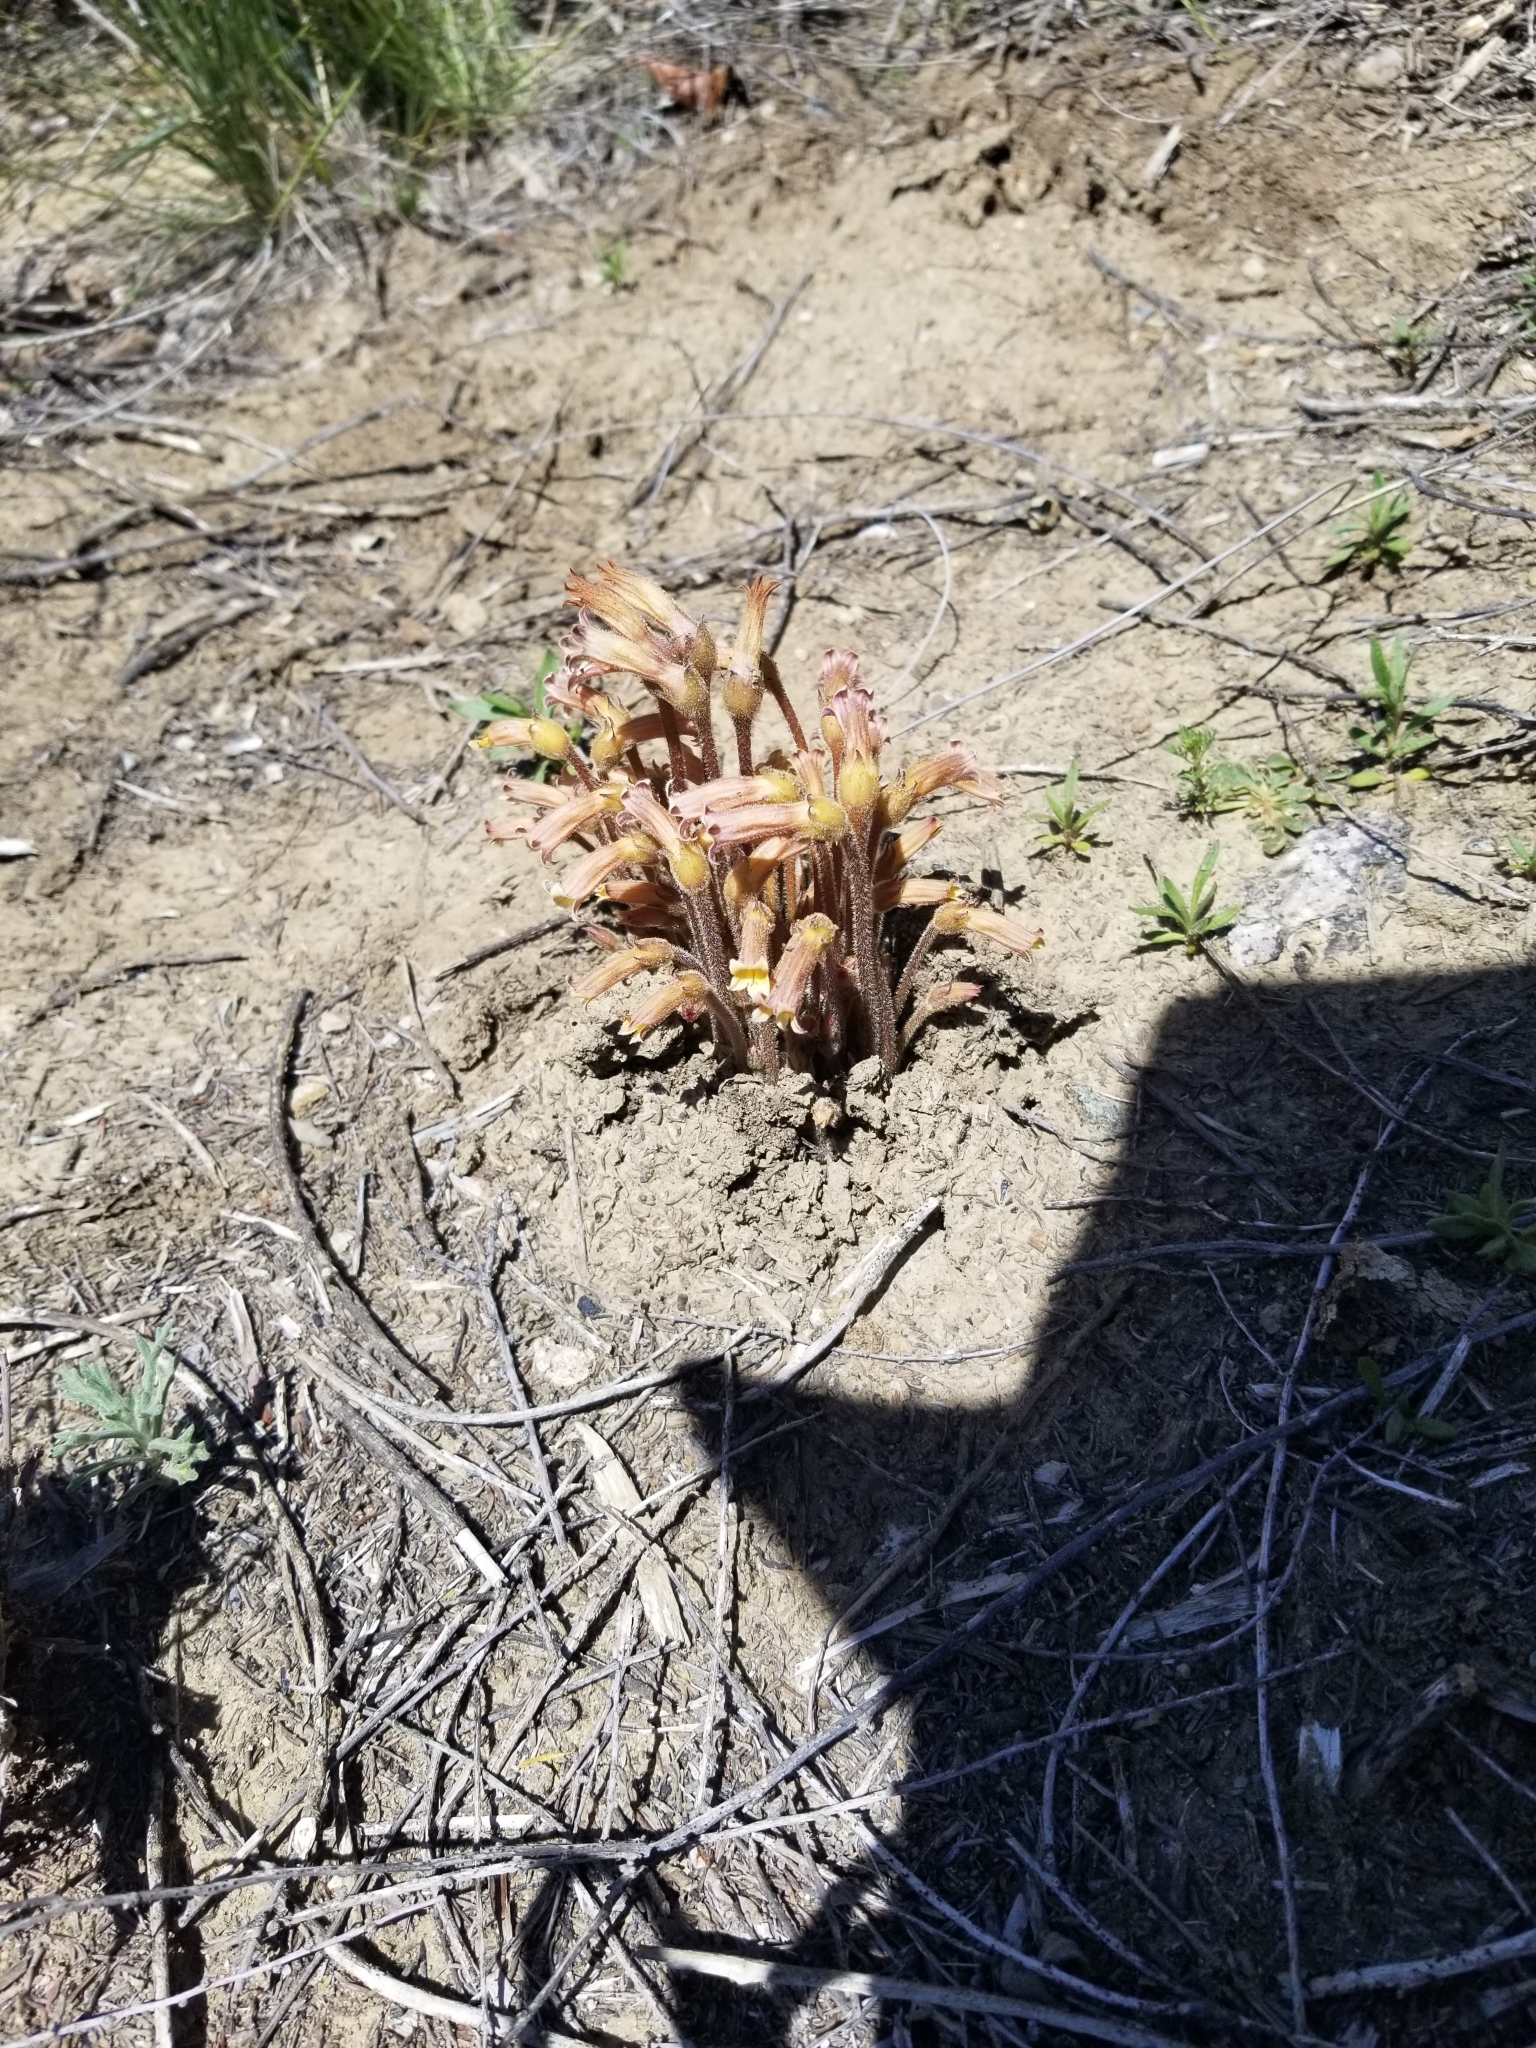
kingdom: Plantae
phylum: Tracheophyta
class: Magnoliopsida
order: Lamiales
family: Orobanchaceae
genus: Aphyllon
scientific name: Aphyllon franciscanum
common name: San francisco broomrape
